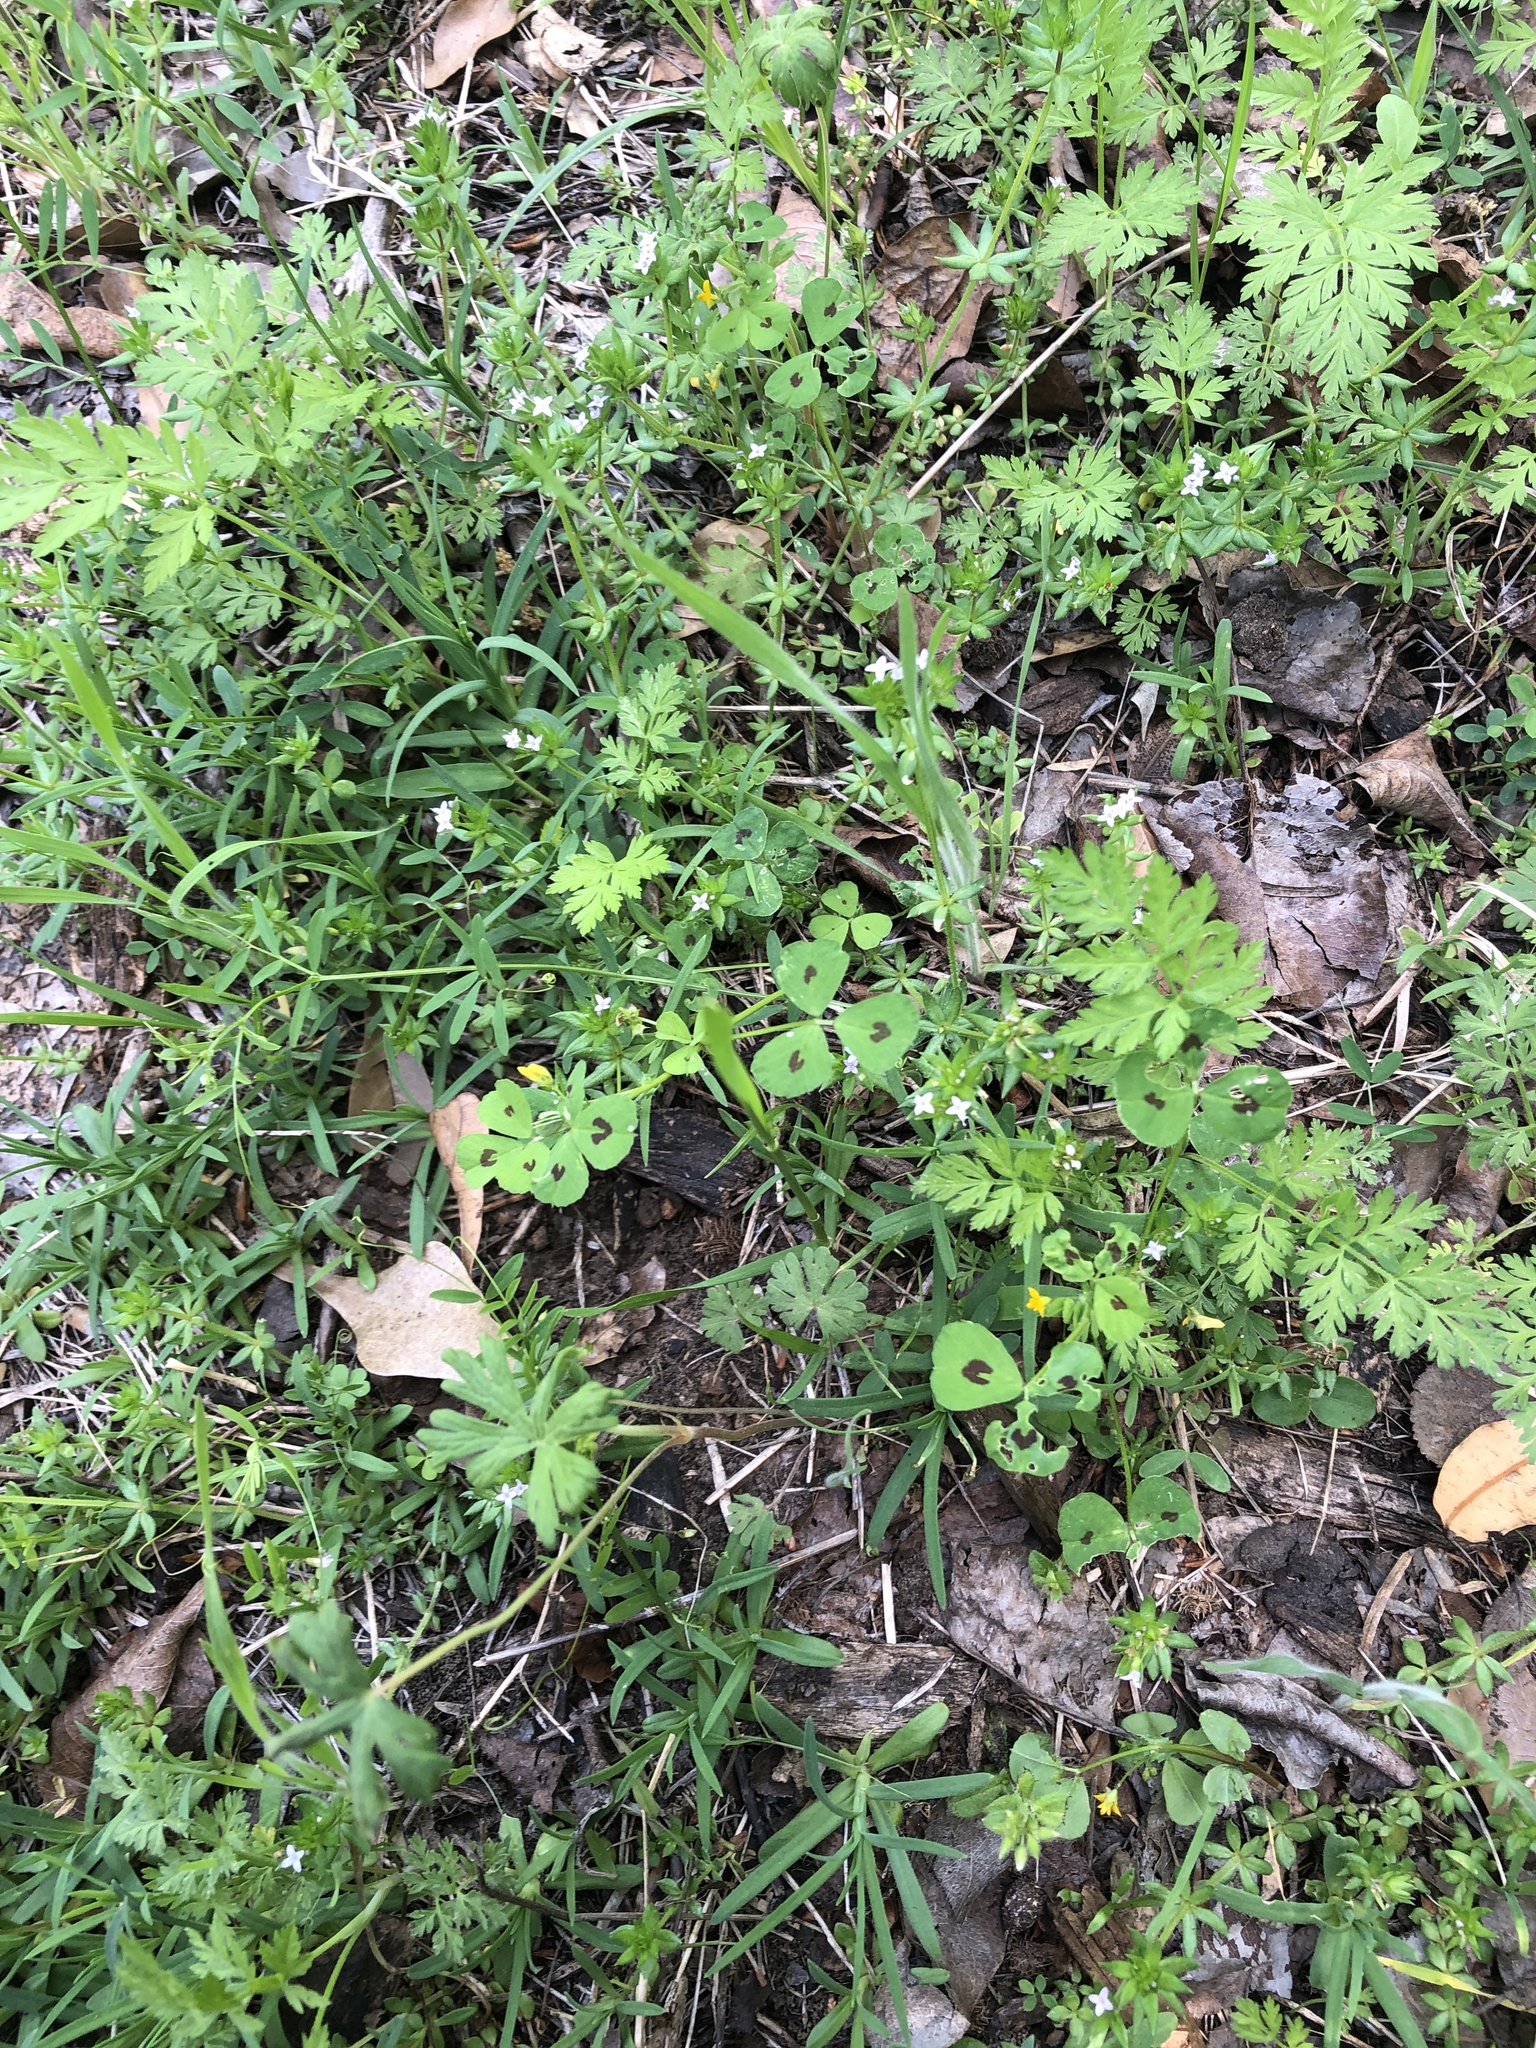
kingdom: Plantae
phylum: Tracheophyta
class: Magnoliopsida
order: Fabales
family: Fabaceae
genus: Medicago
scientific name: Medicago arabica
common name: Spotted medick
